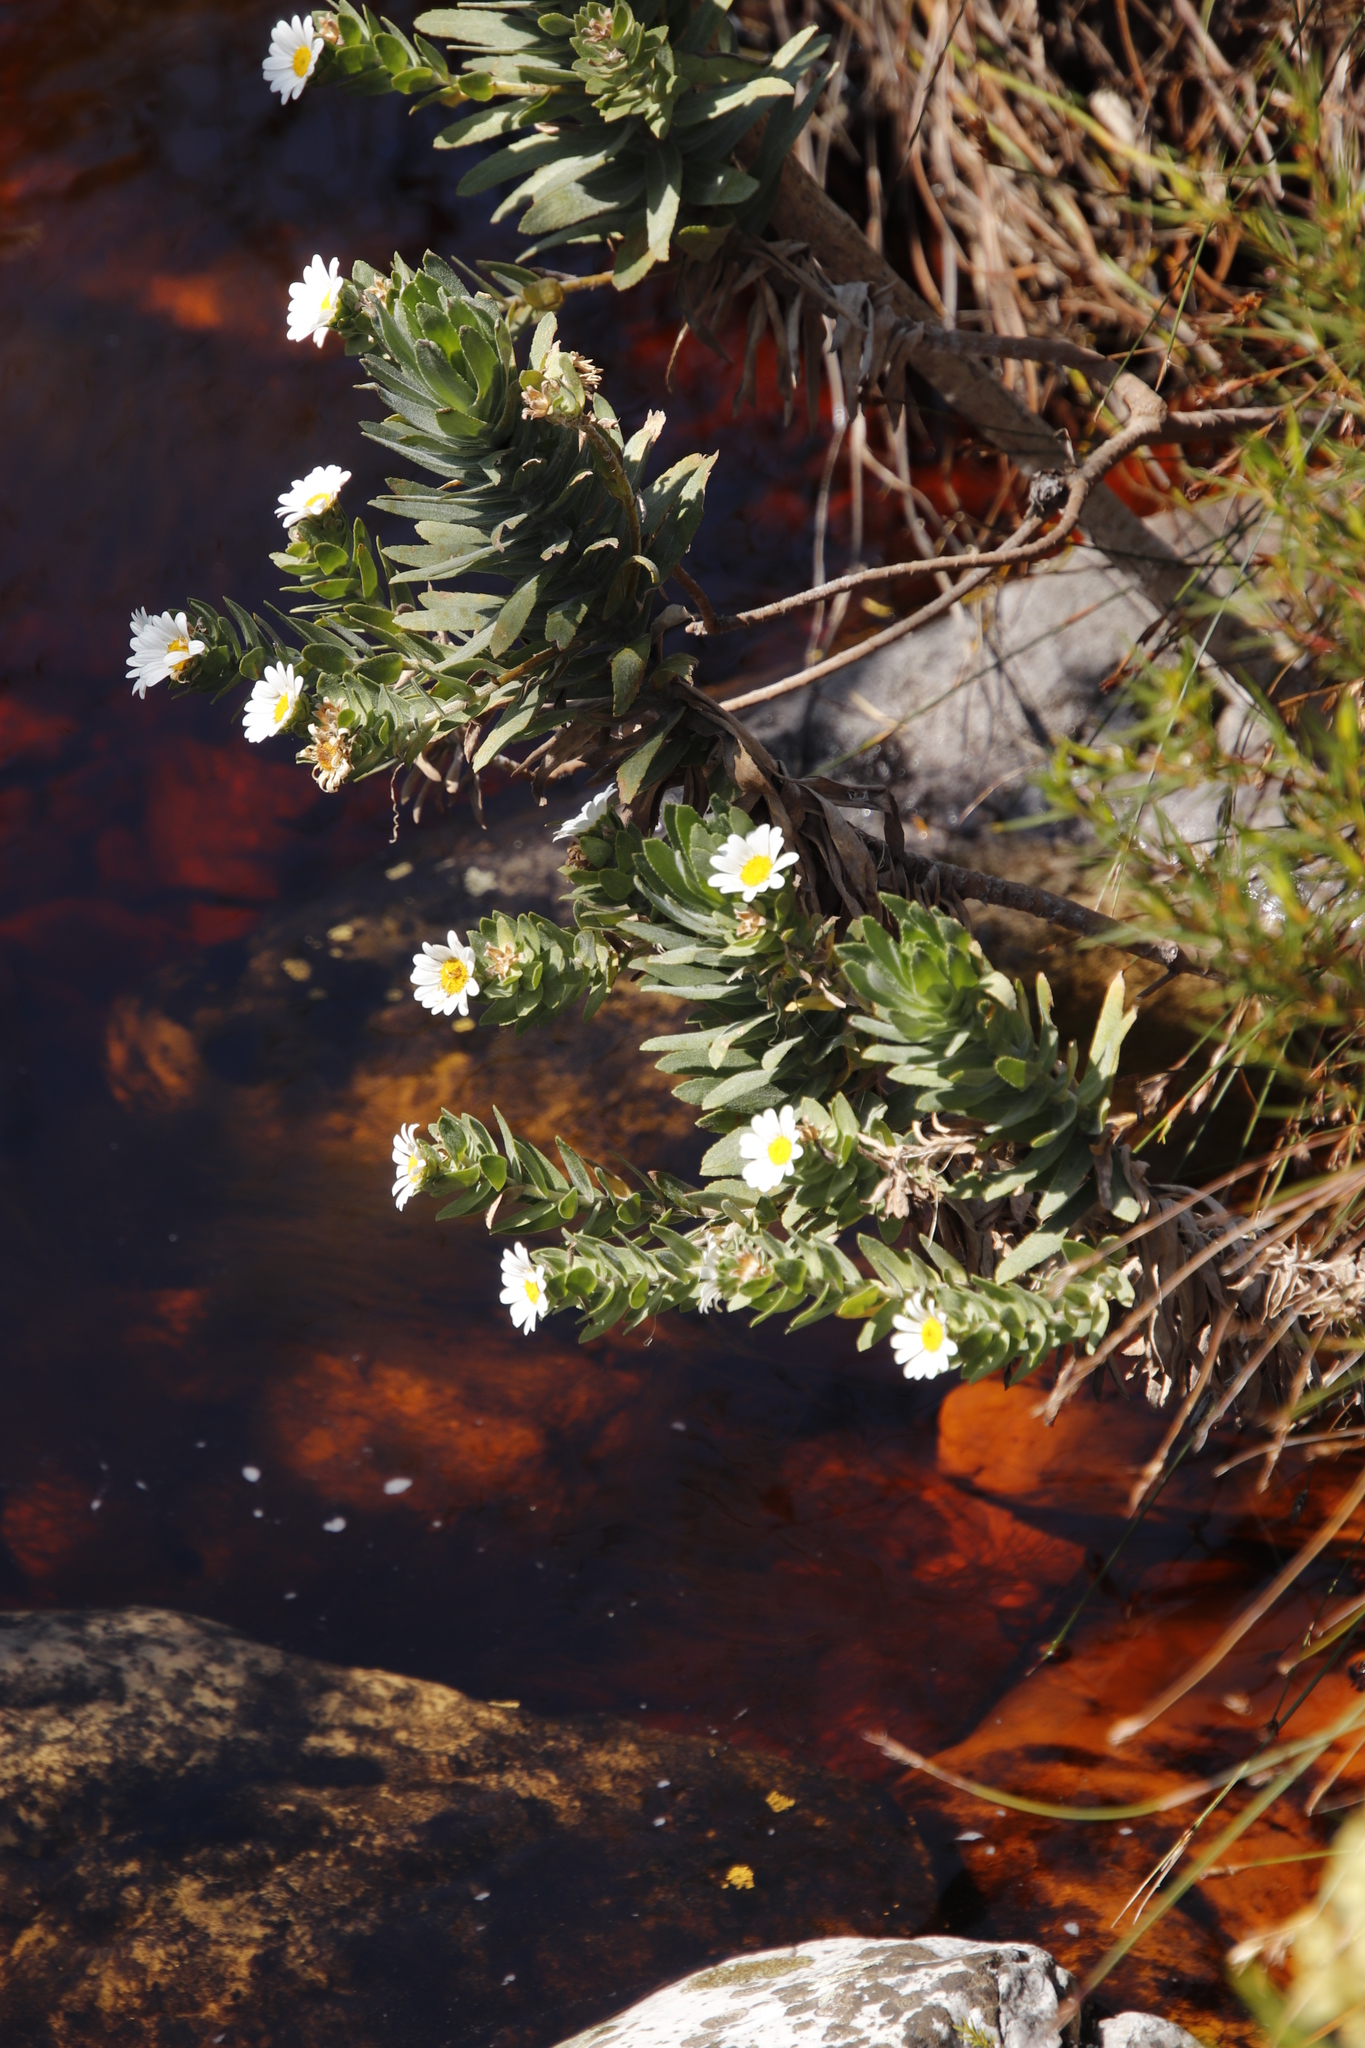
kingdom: Plantae
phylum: Tracheophyta
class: Magnoliopsida
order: Asterales
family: Asteraceae
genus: Osmitopsis
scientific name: Osmitopsis asteriscoides
